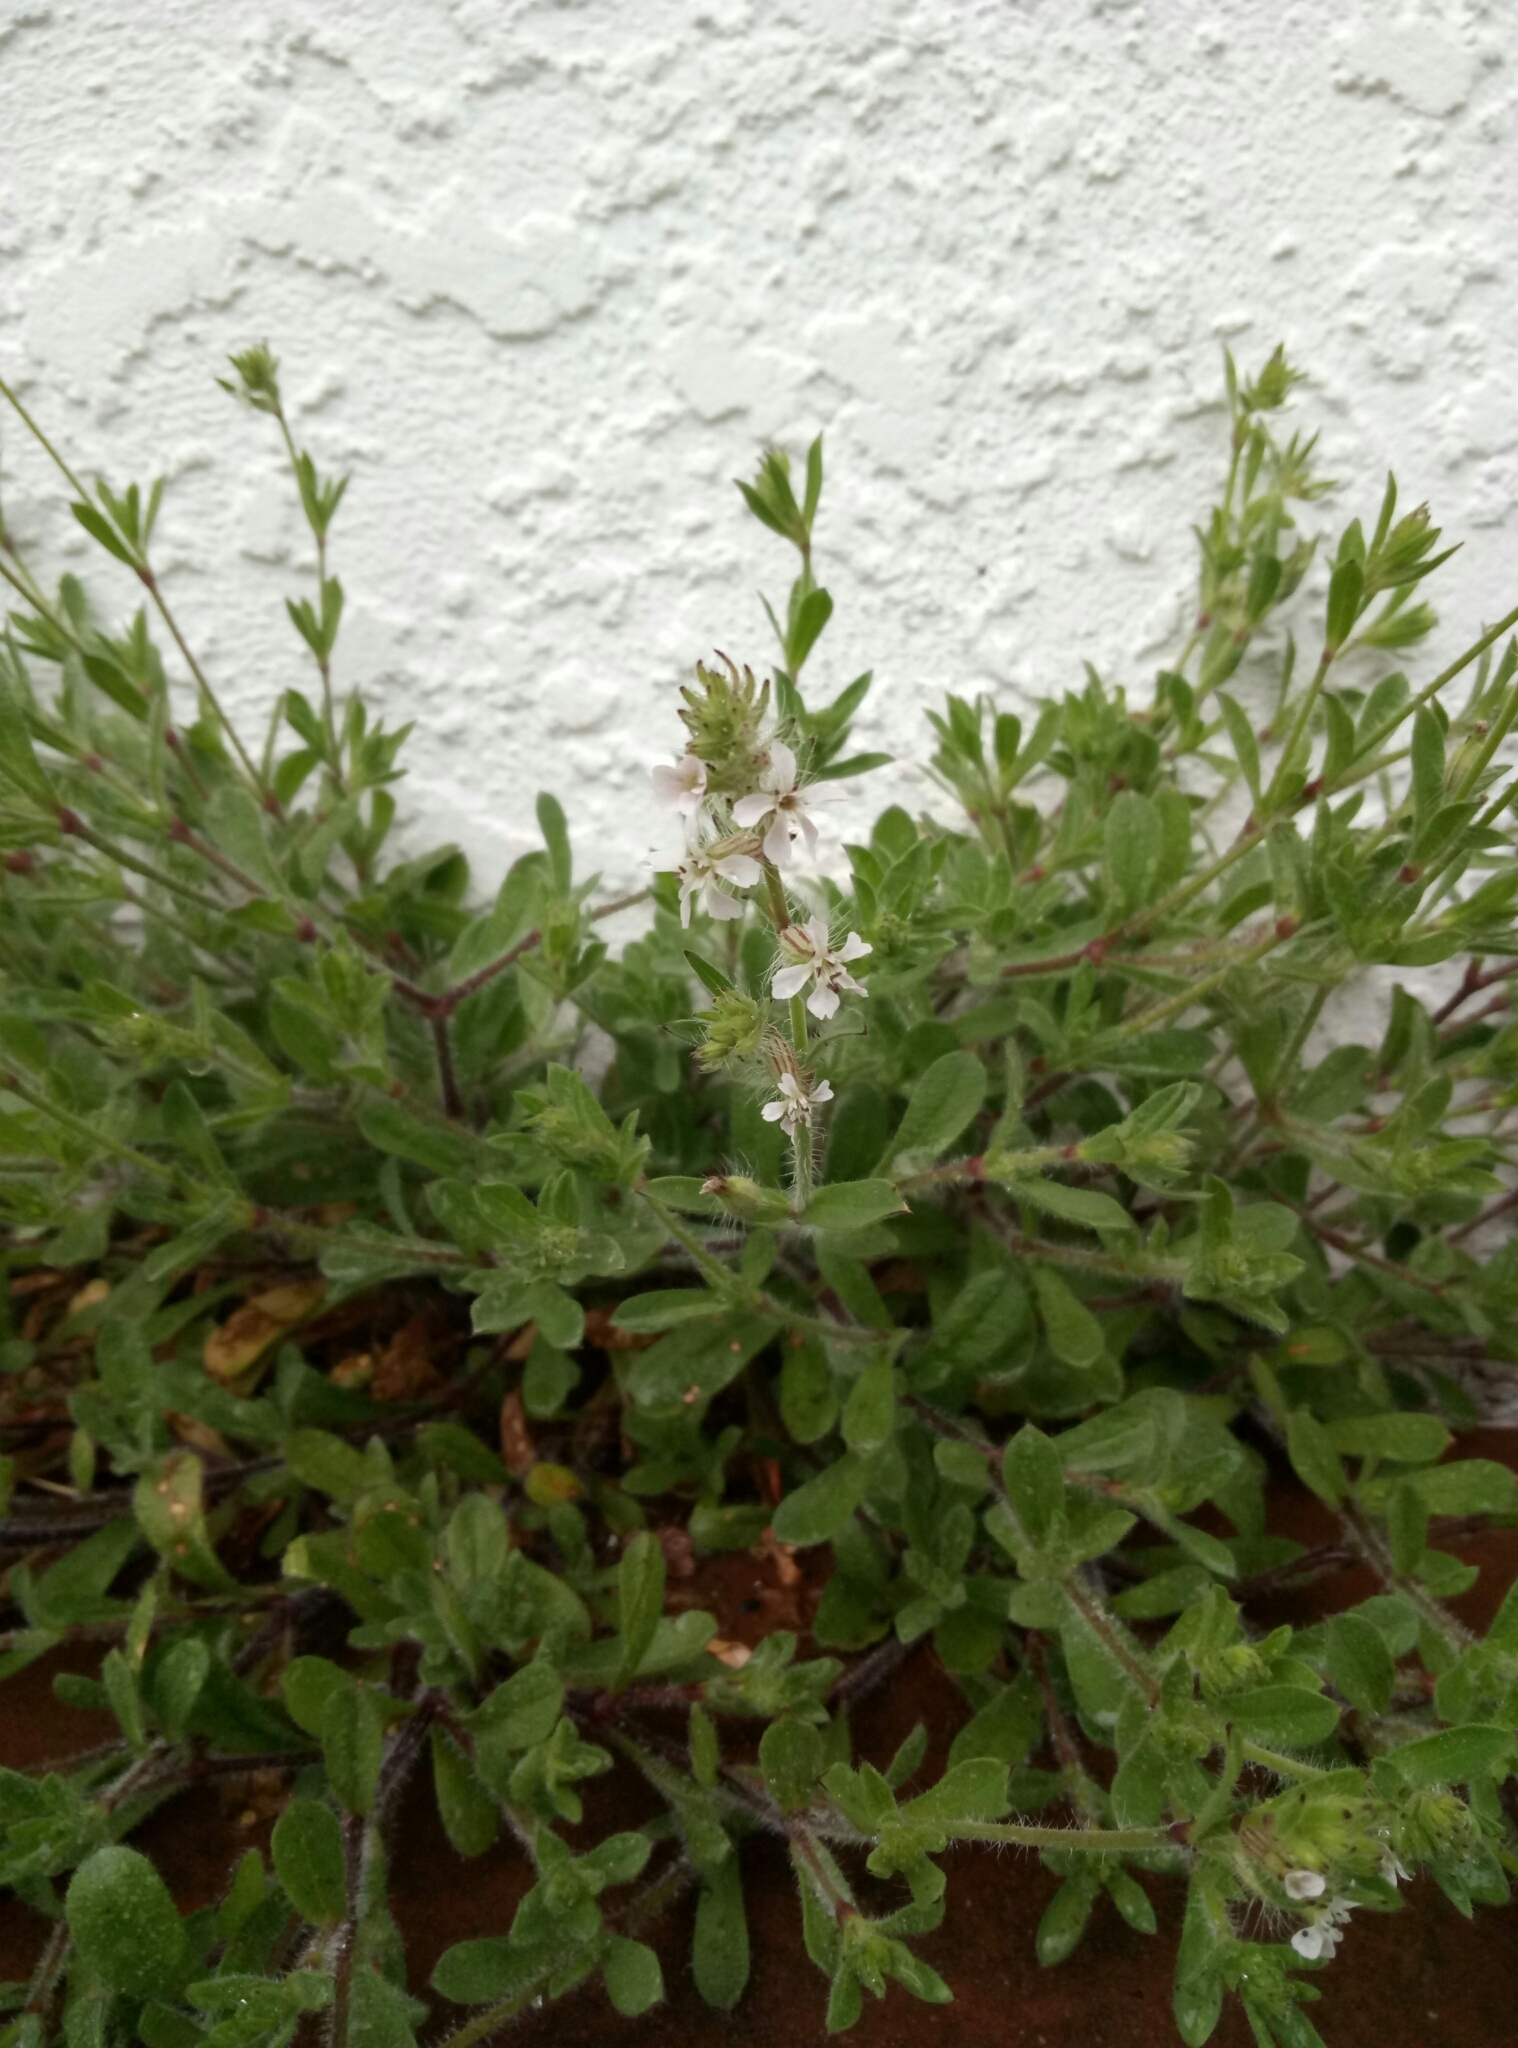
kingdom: Plantae
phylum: Tracheophyta
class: Magnoliopsida
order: Caryophyllales
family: Caryophyllaceae
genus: Silene
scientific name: Silene gallica
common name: Small-flowered catchfly
